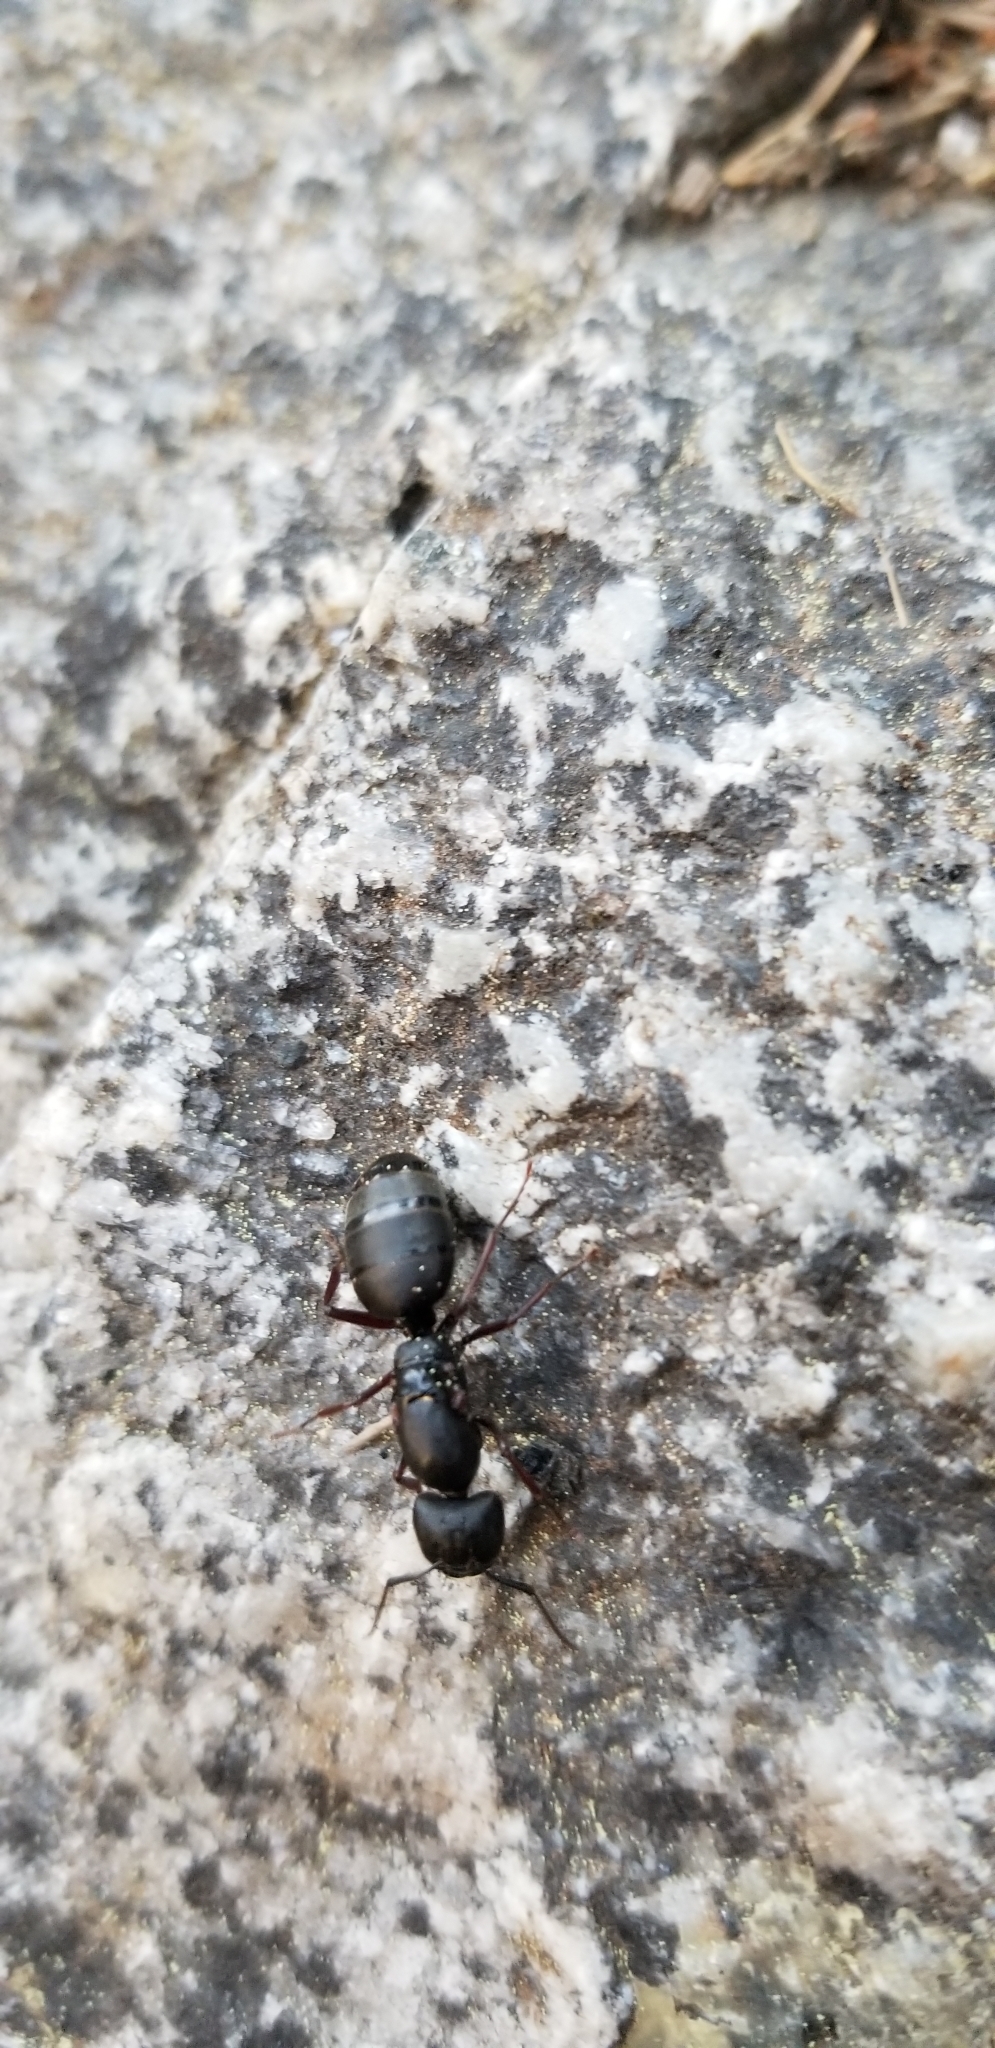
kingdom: Animalia
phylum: Arthropoda
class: Insecta
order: Hymenoptera
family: Formicidae
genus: Camponotus
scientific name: Camponotus modoc
